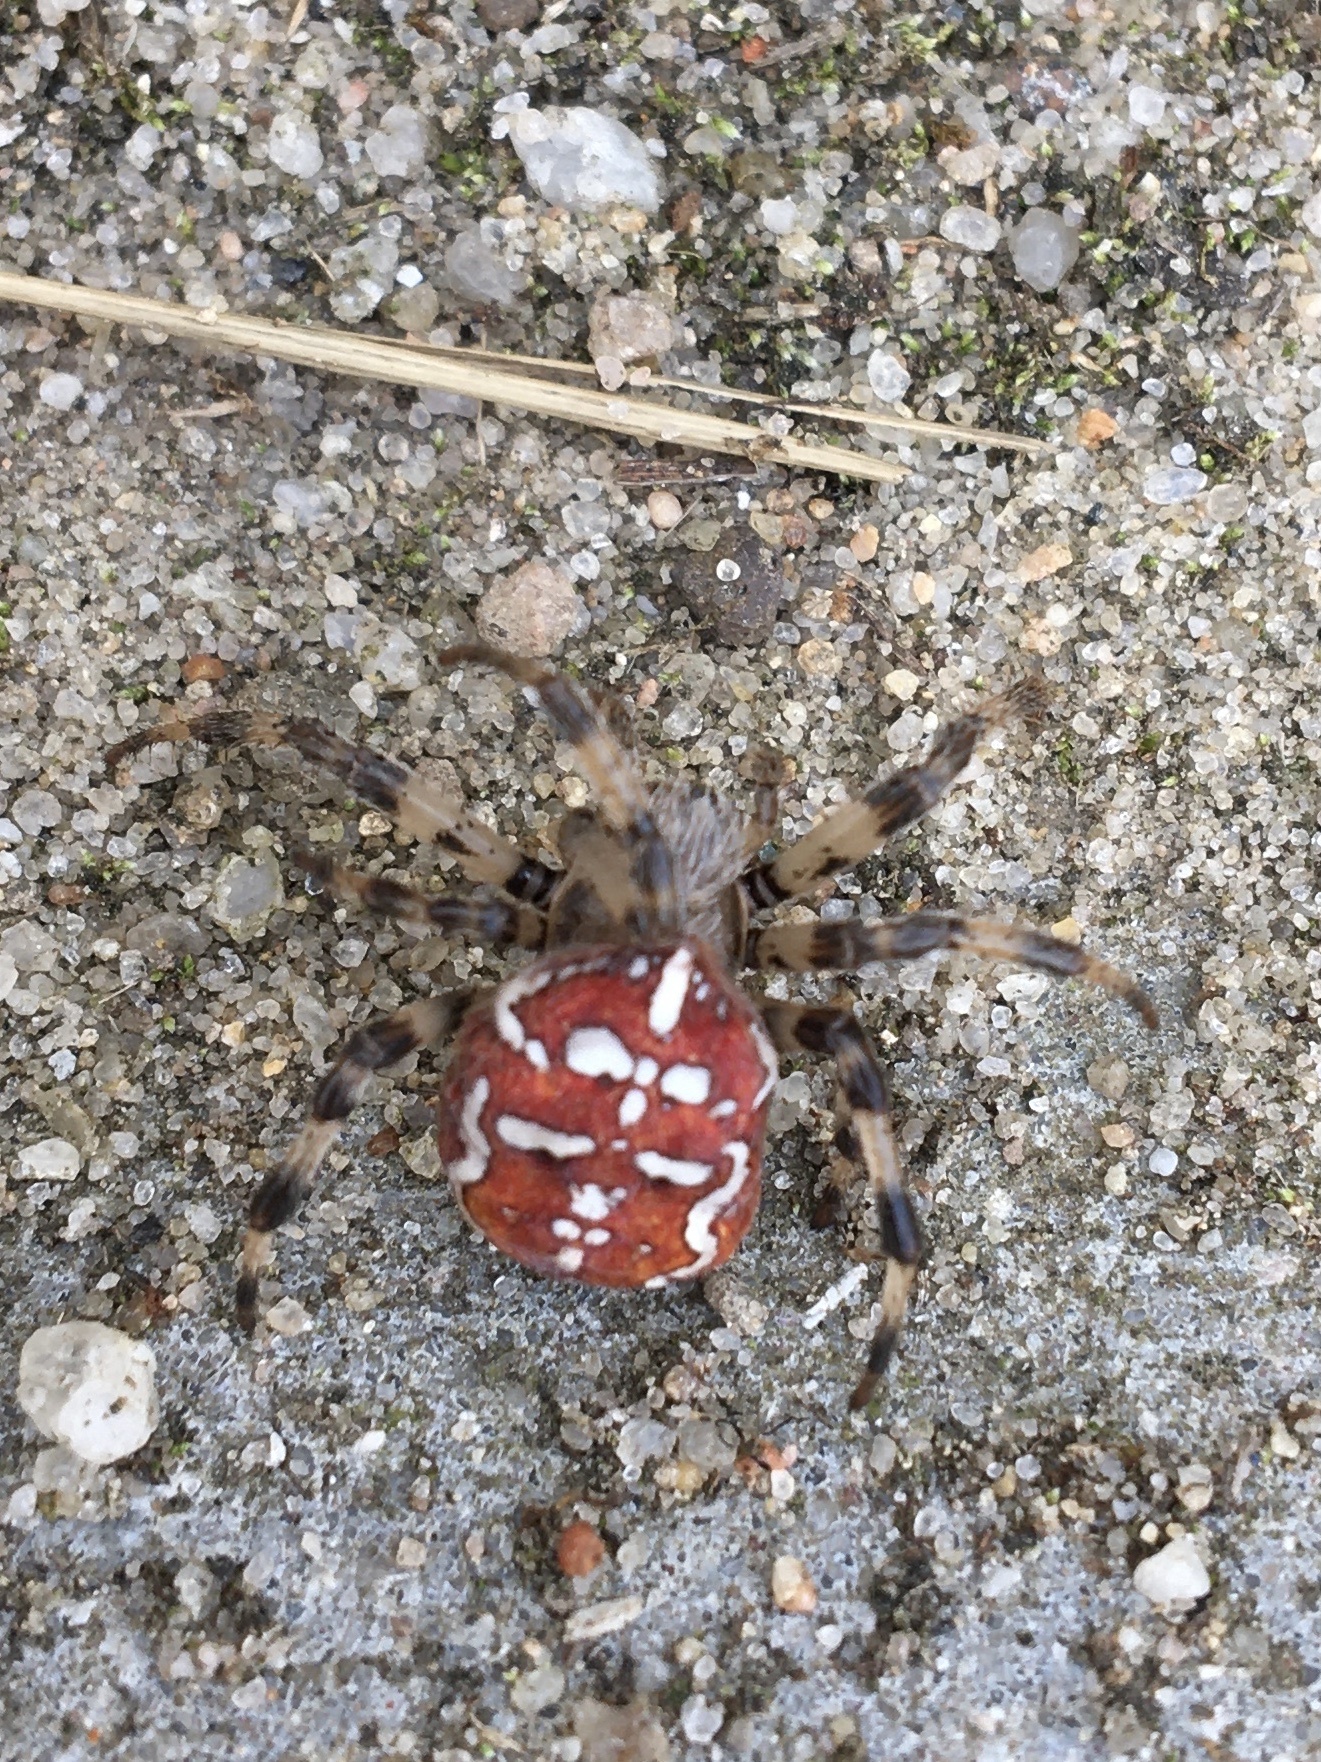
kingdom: Animalia
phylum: Arthropoda
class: Arachnida
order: Araneae
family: Araneidae
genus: Araneus
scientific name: Araneus quadratus
